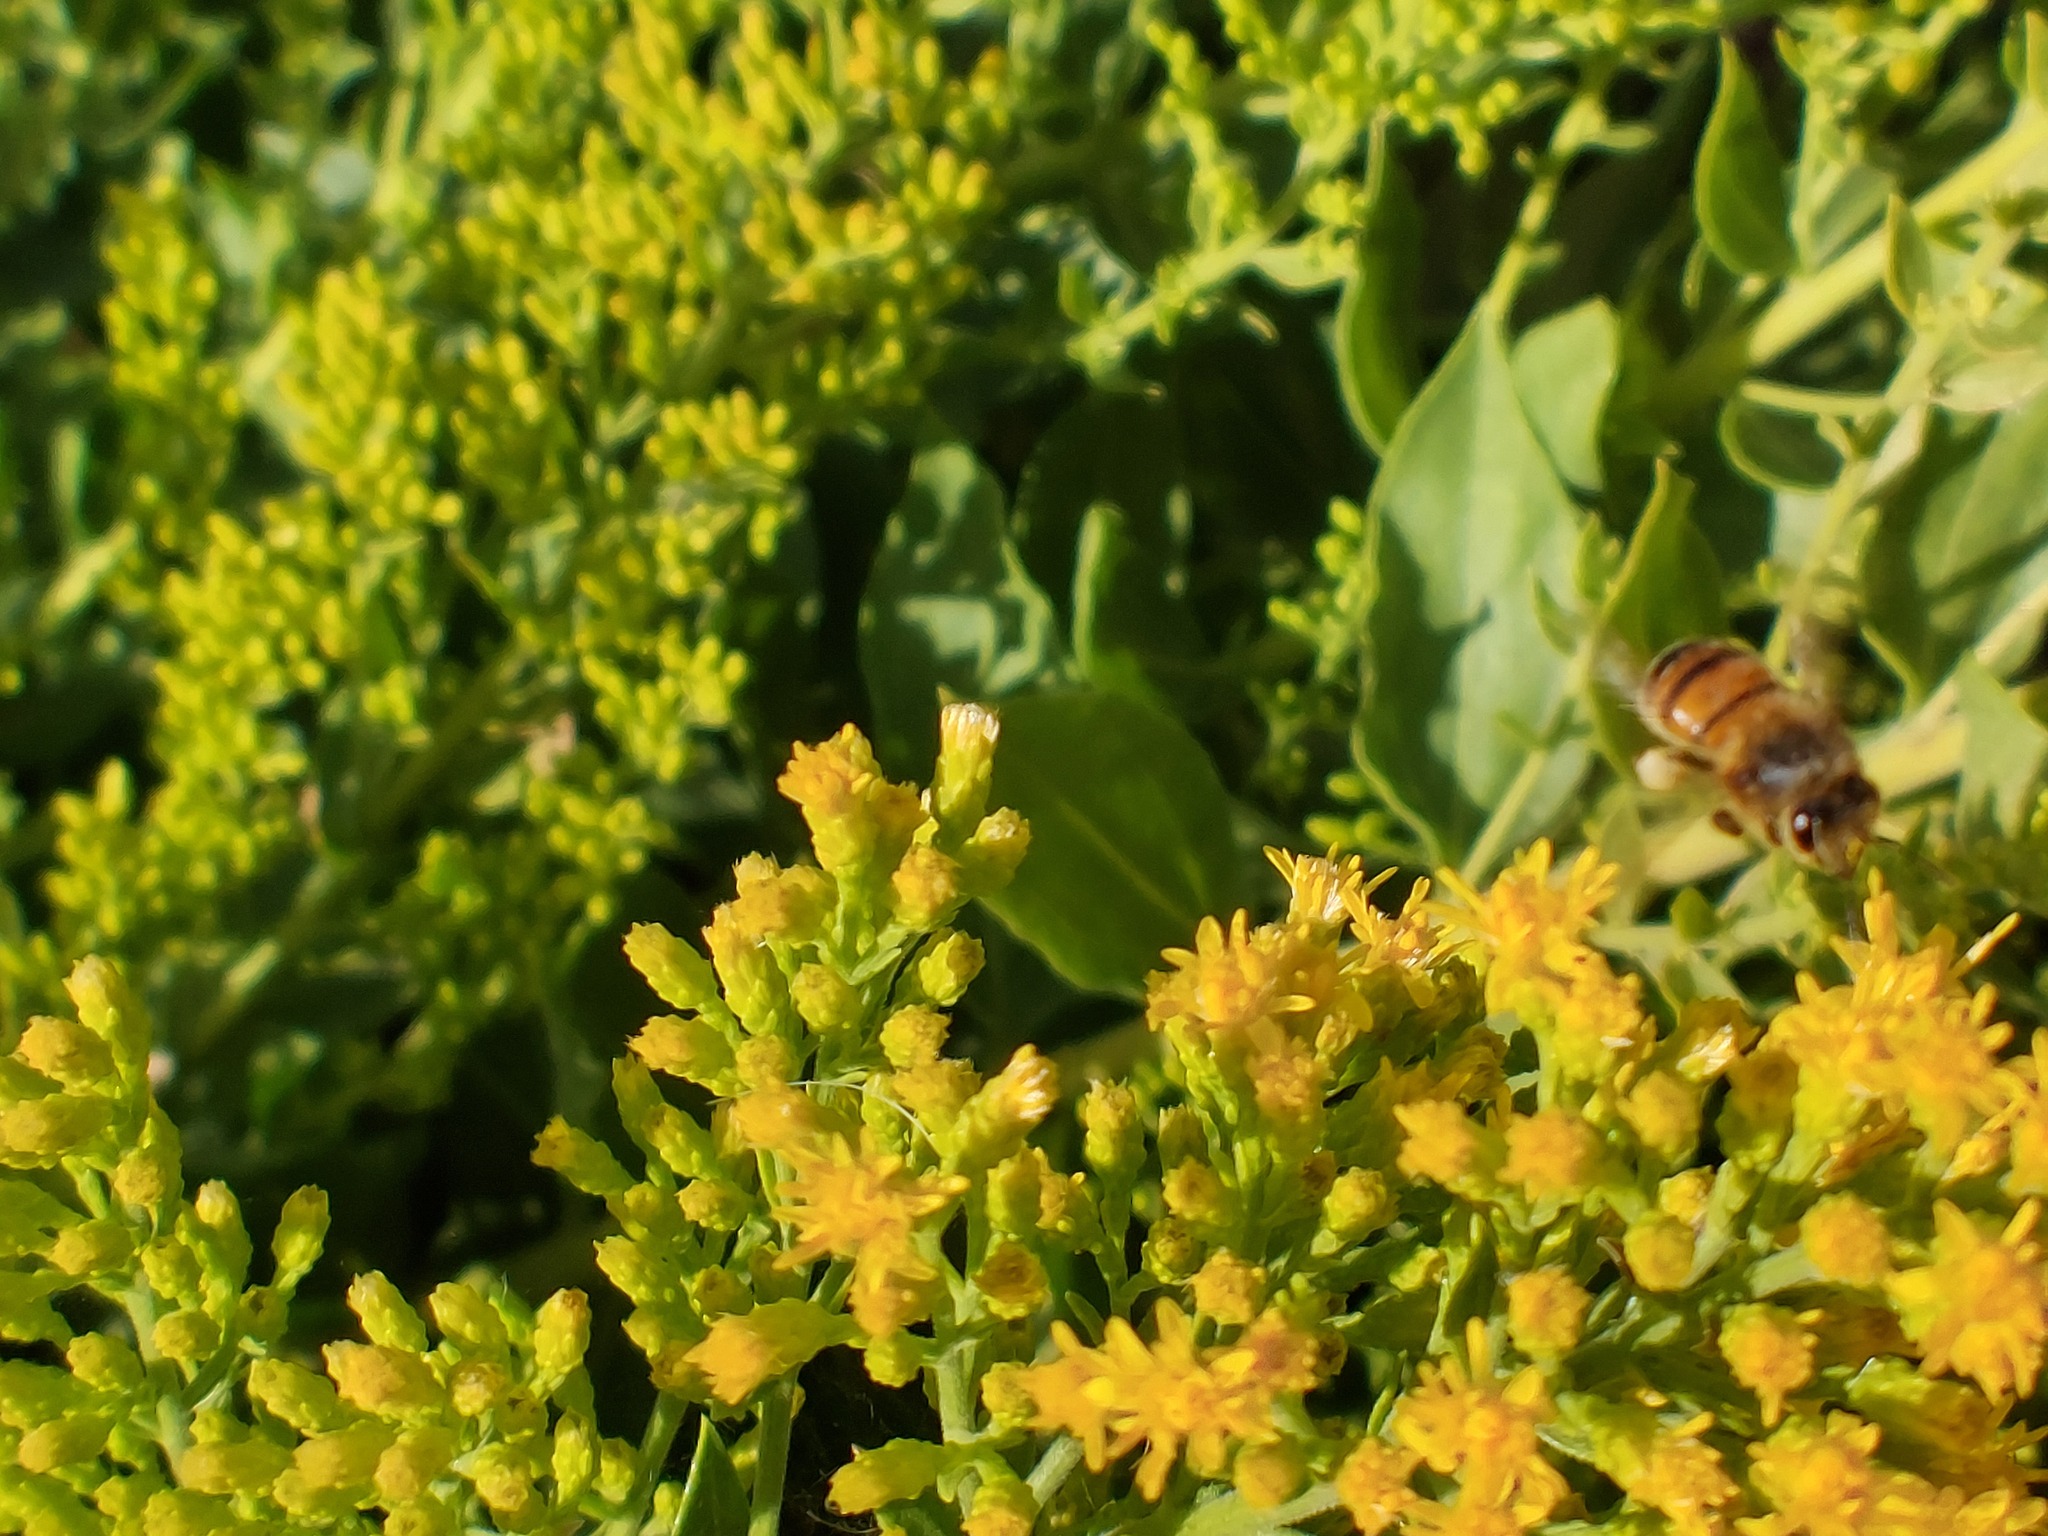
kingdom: Animalia
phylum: Arthropoda
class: Insecta
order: Hymenoptera
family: Apidae
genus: Apis
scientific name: Apis mellifera
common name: Honey bee
